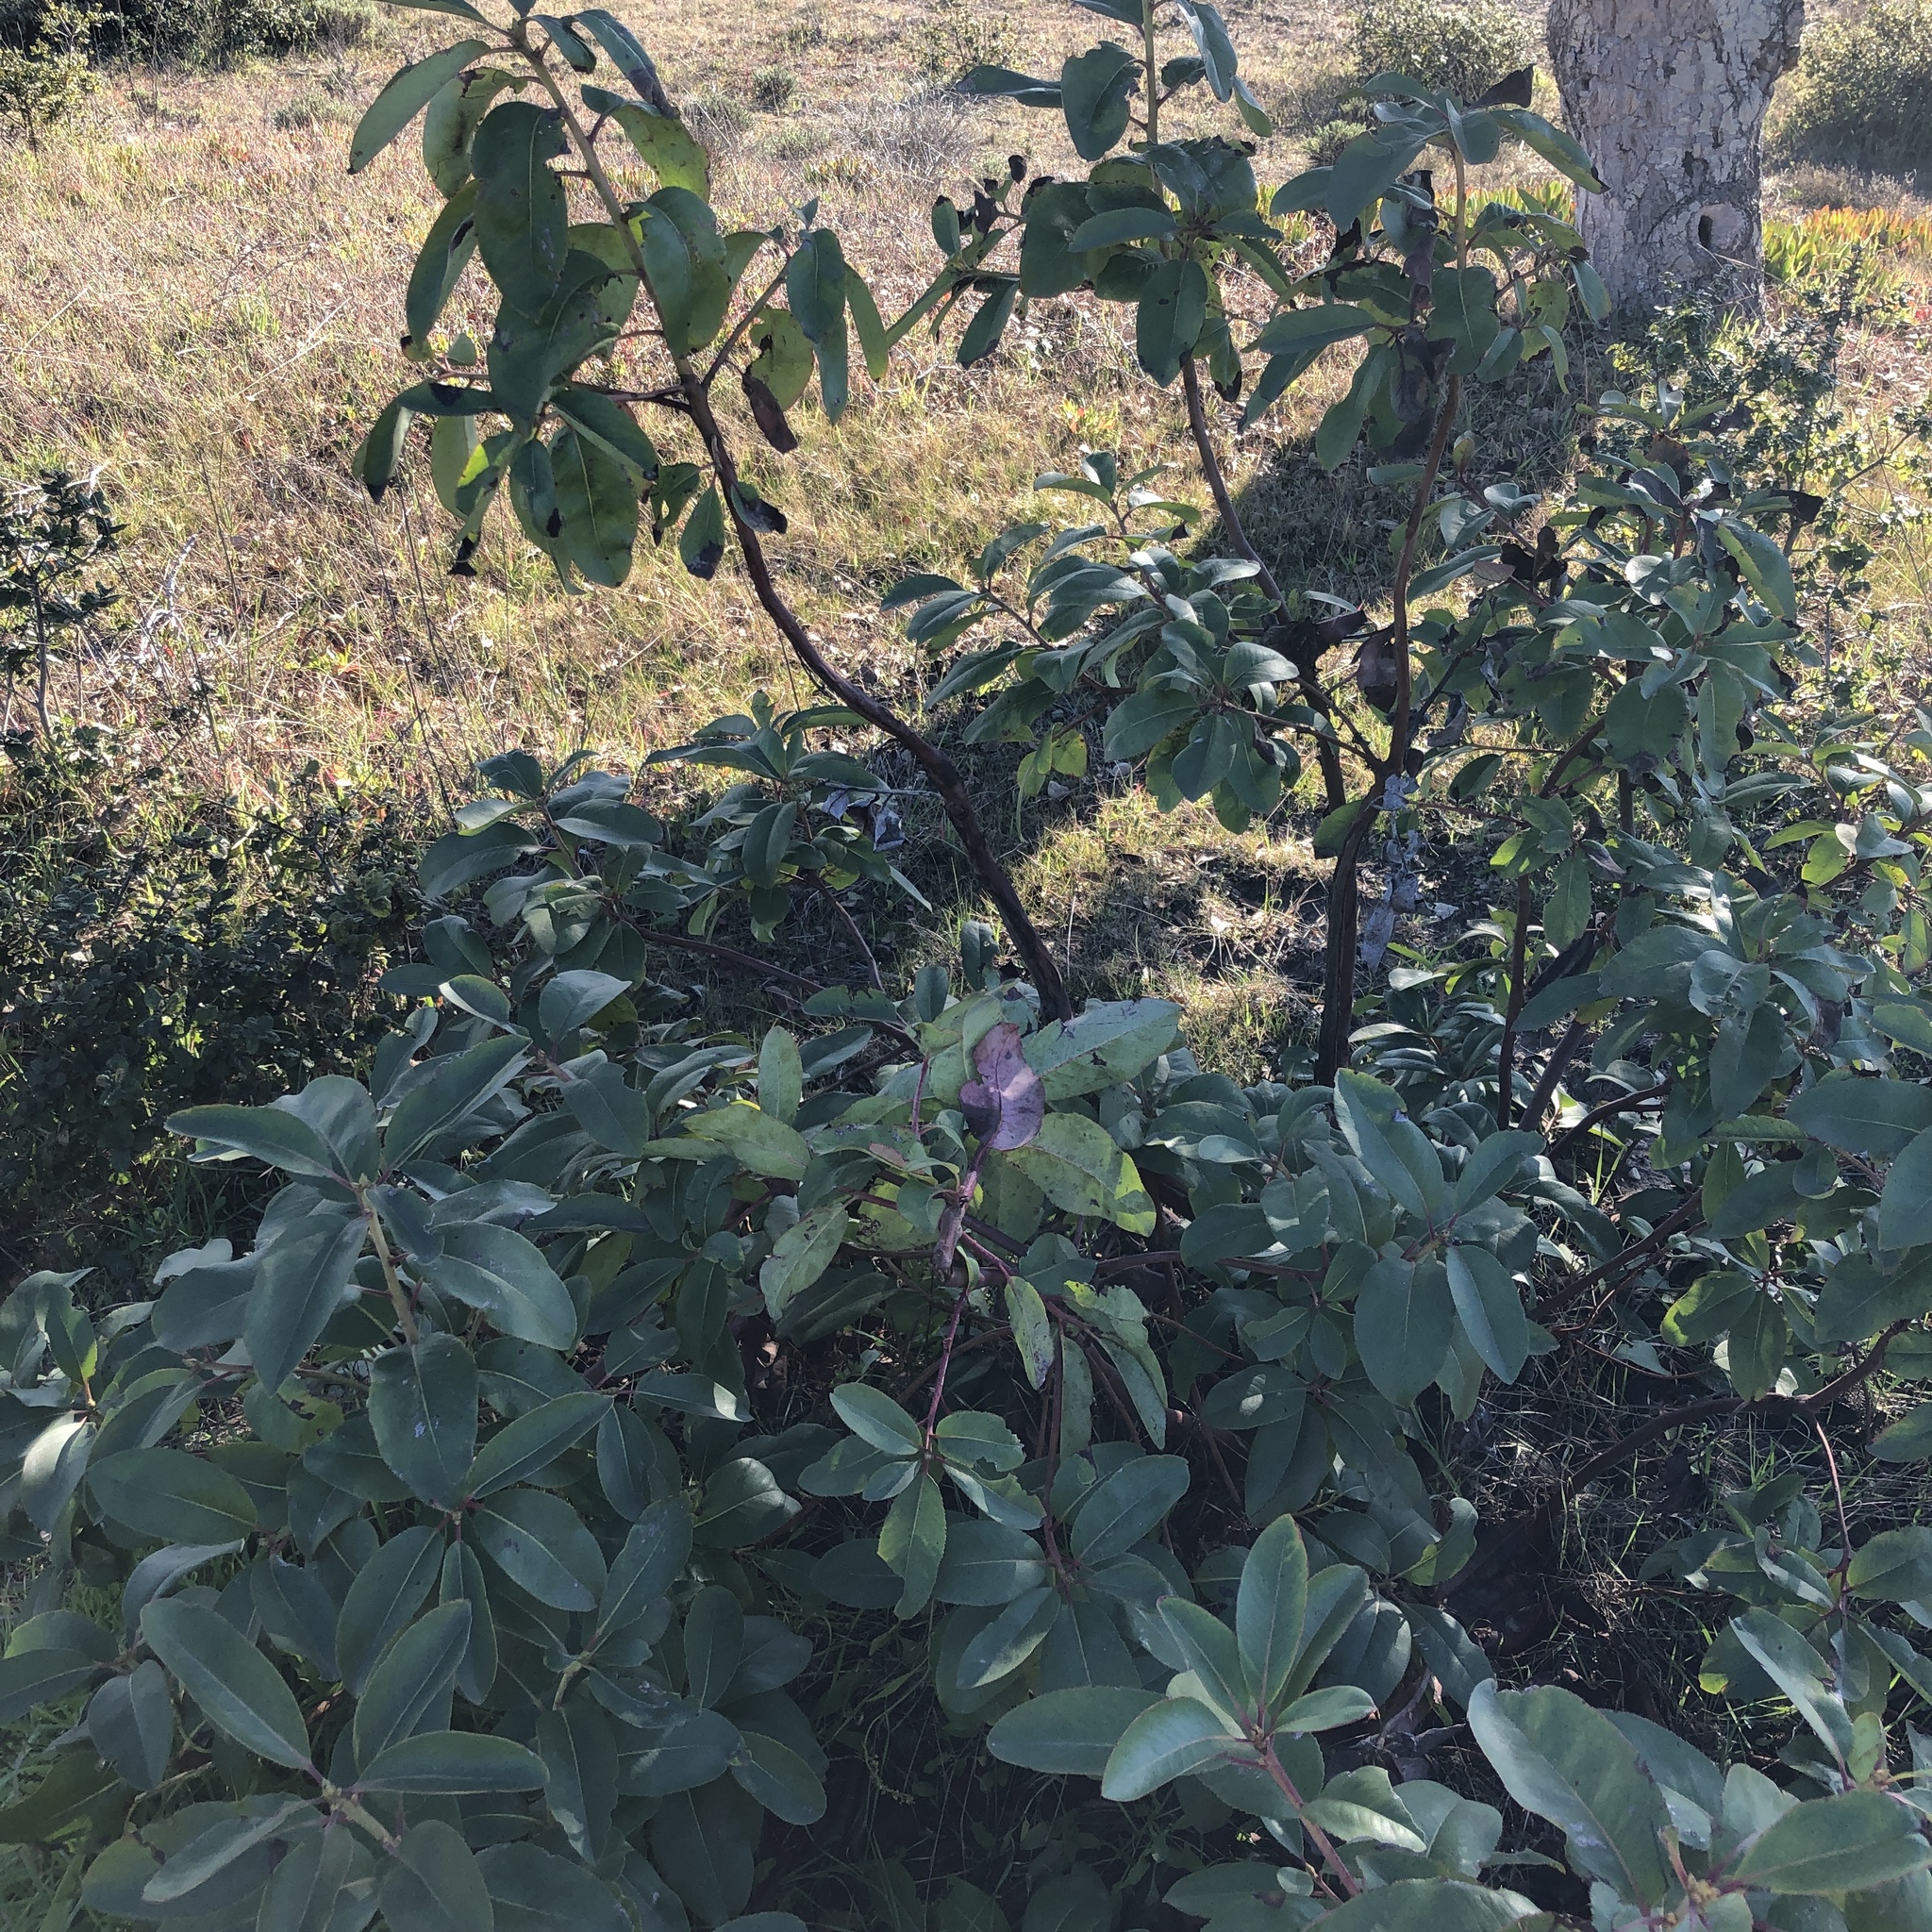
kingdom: Plantae
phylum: Tracheophyta
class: Magnoliopsida
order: Ericales
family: Ericaceae
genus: Arbutus
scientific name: Arbutus menziesii
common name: Pacific madrone
